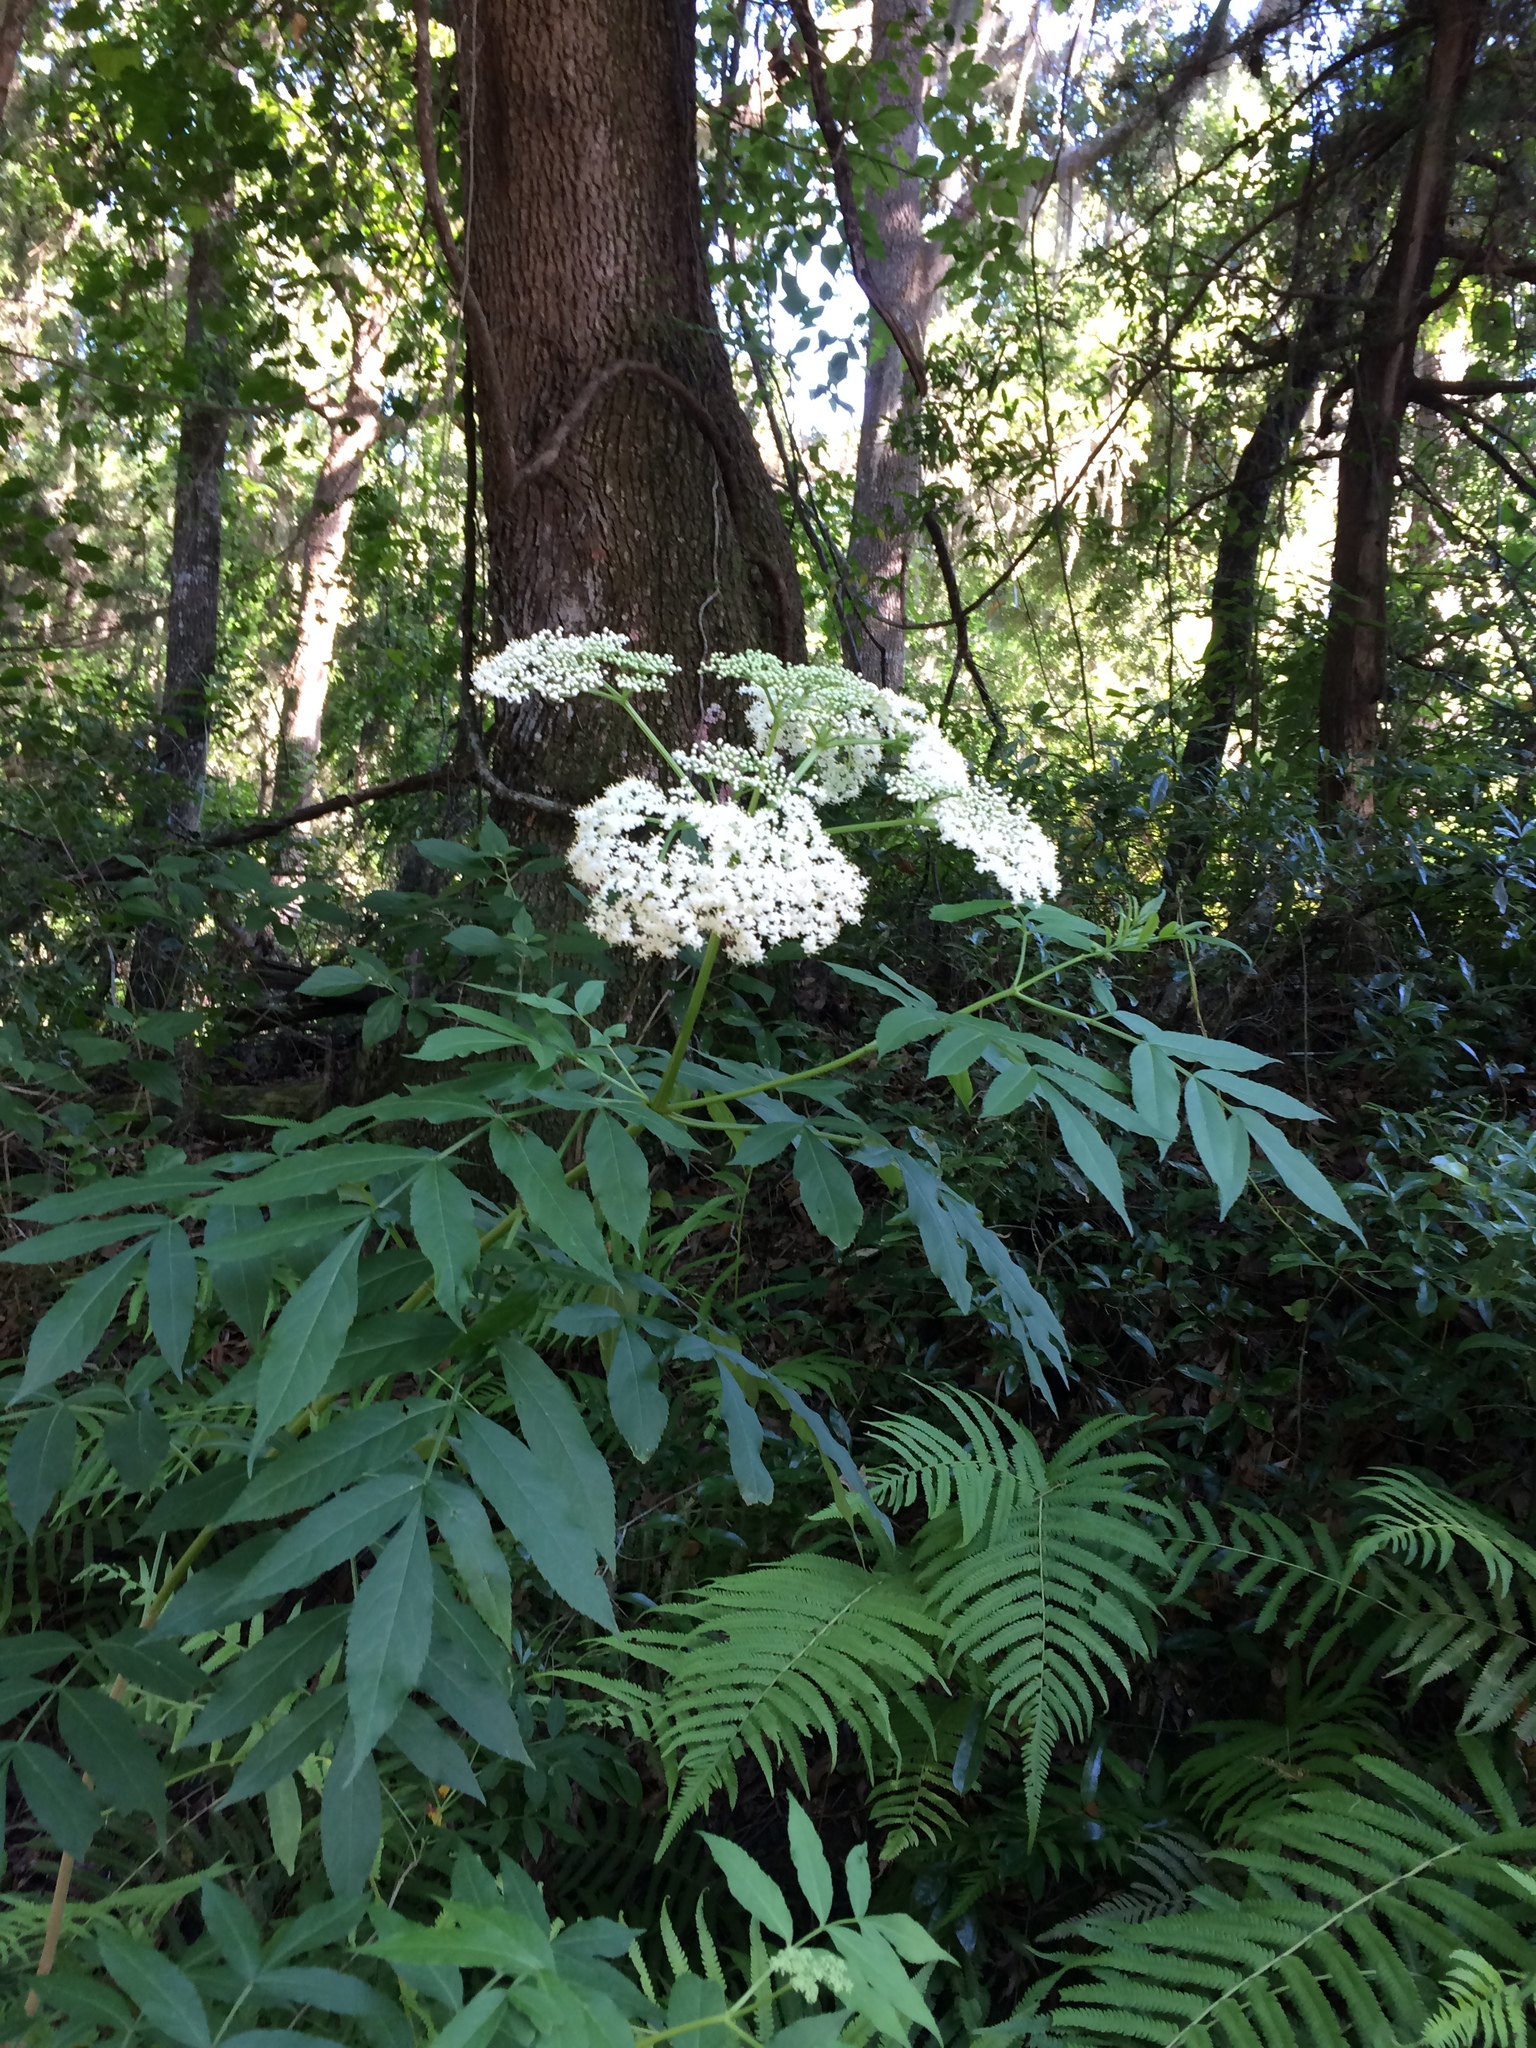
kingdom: Plantae
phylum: Tracheophyta
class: Magnoliopsida
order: Dipsacales
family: Viburnaceae
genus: Sambucus
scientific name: Sambucus canadensis
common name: American elder
